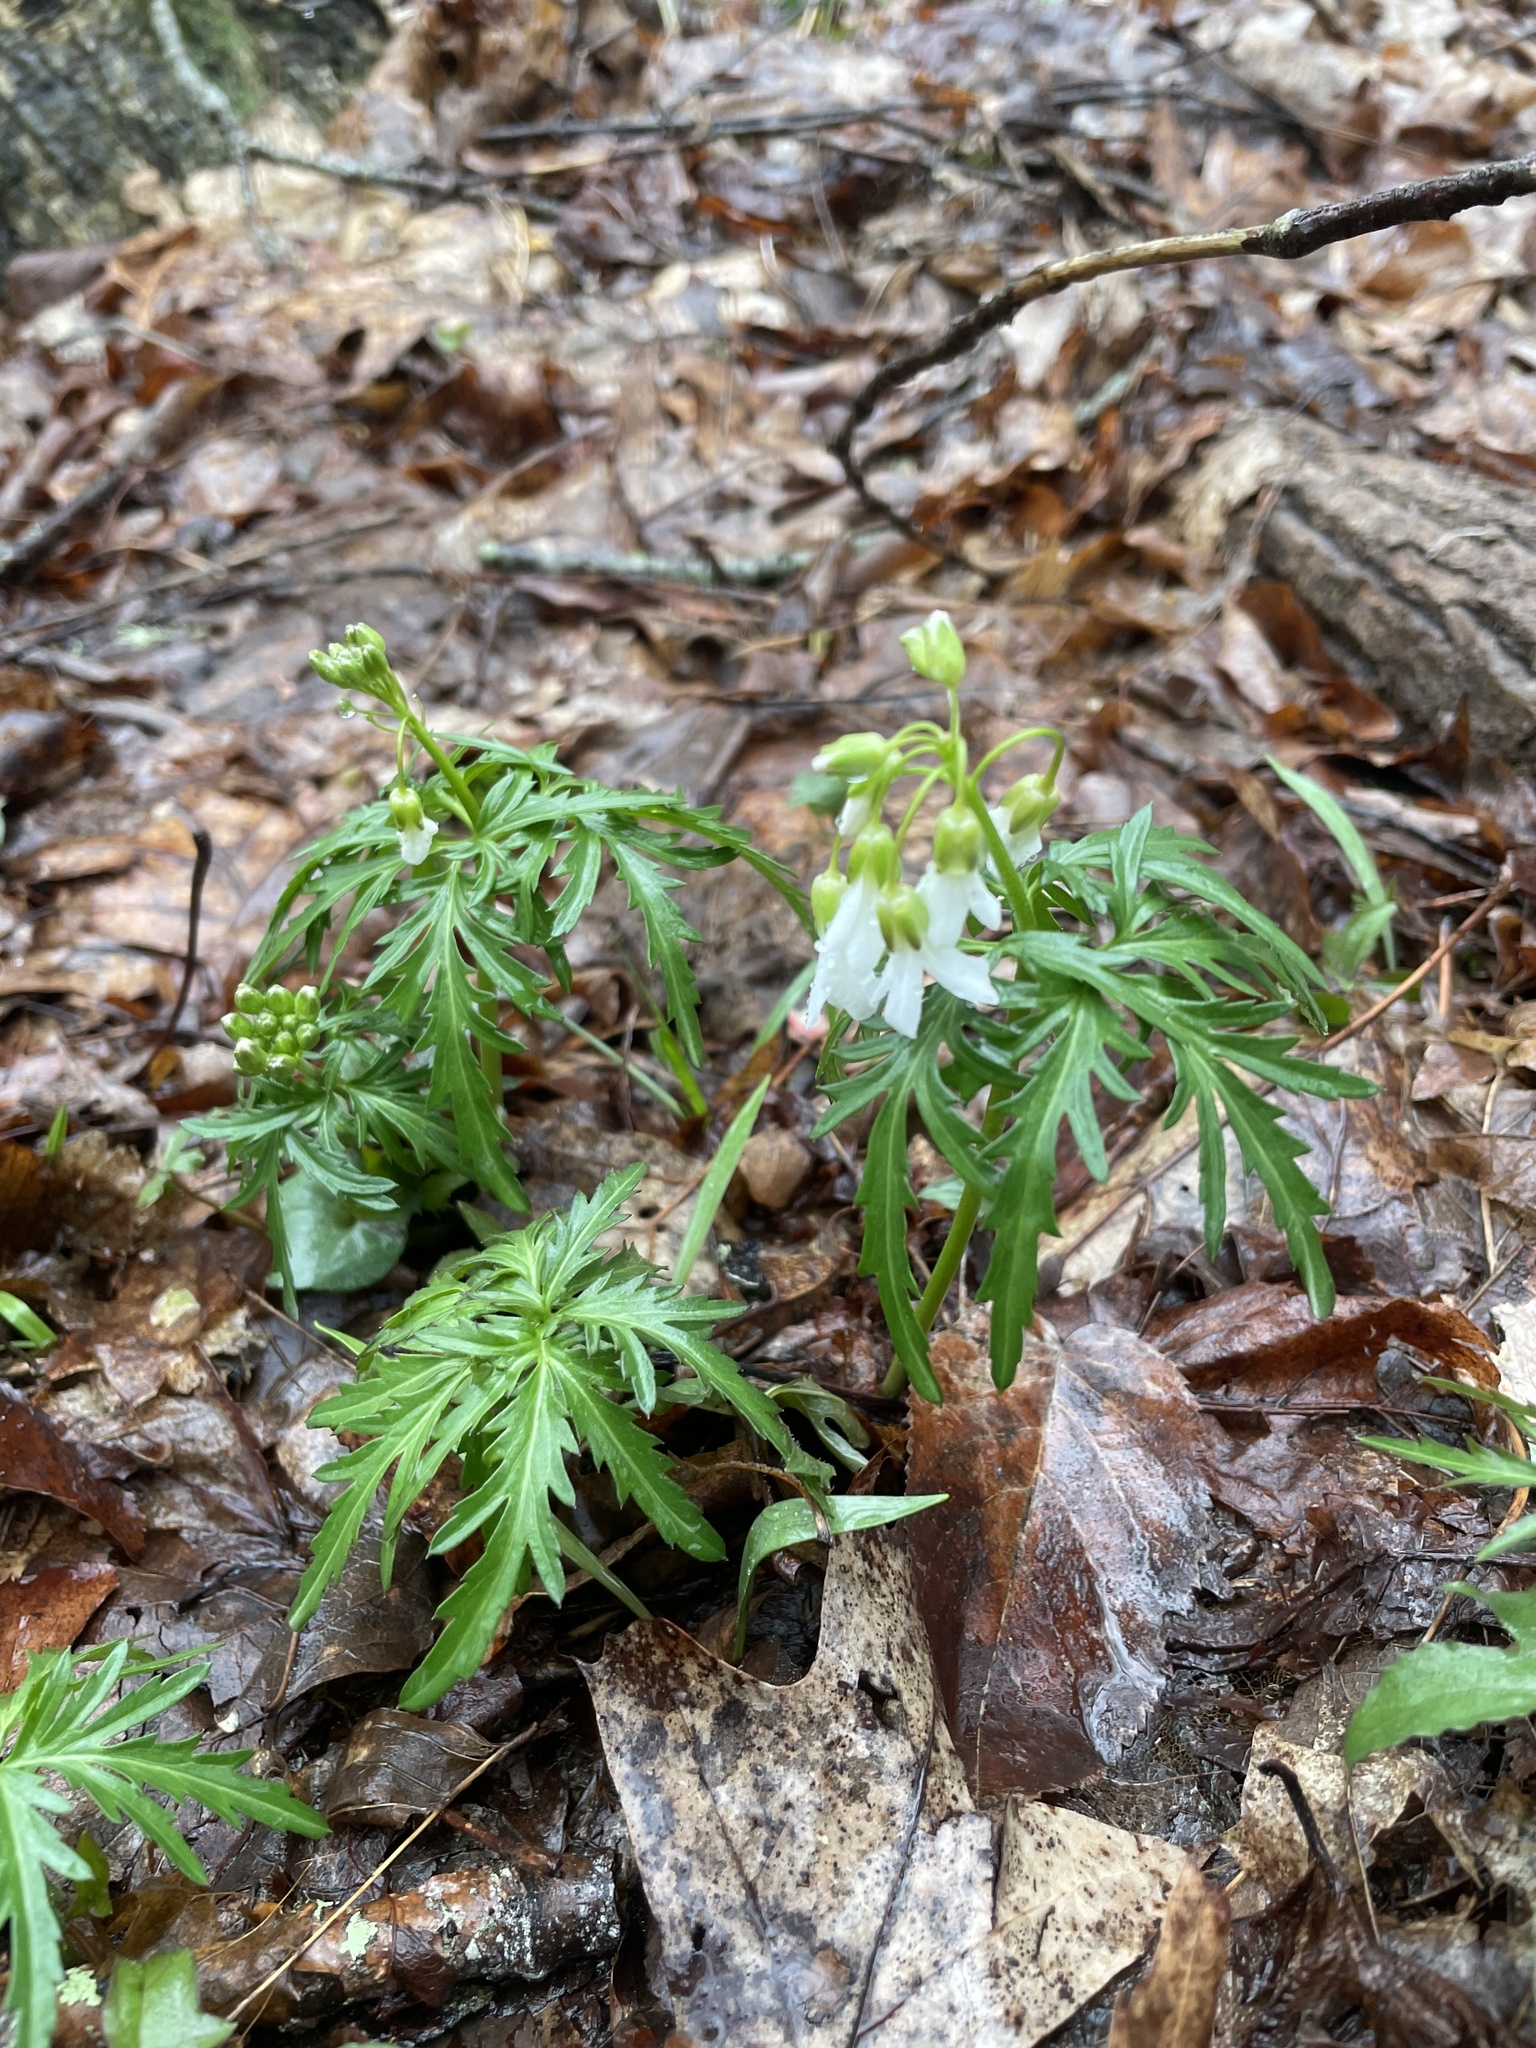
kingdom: Plantae
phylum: Tracheophyta
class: Magnoliopsida
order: Brassicales
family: Brassicaceae
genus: Cardamine
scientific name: Cardamine concatenata
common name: Cut-leaf toothcup
